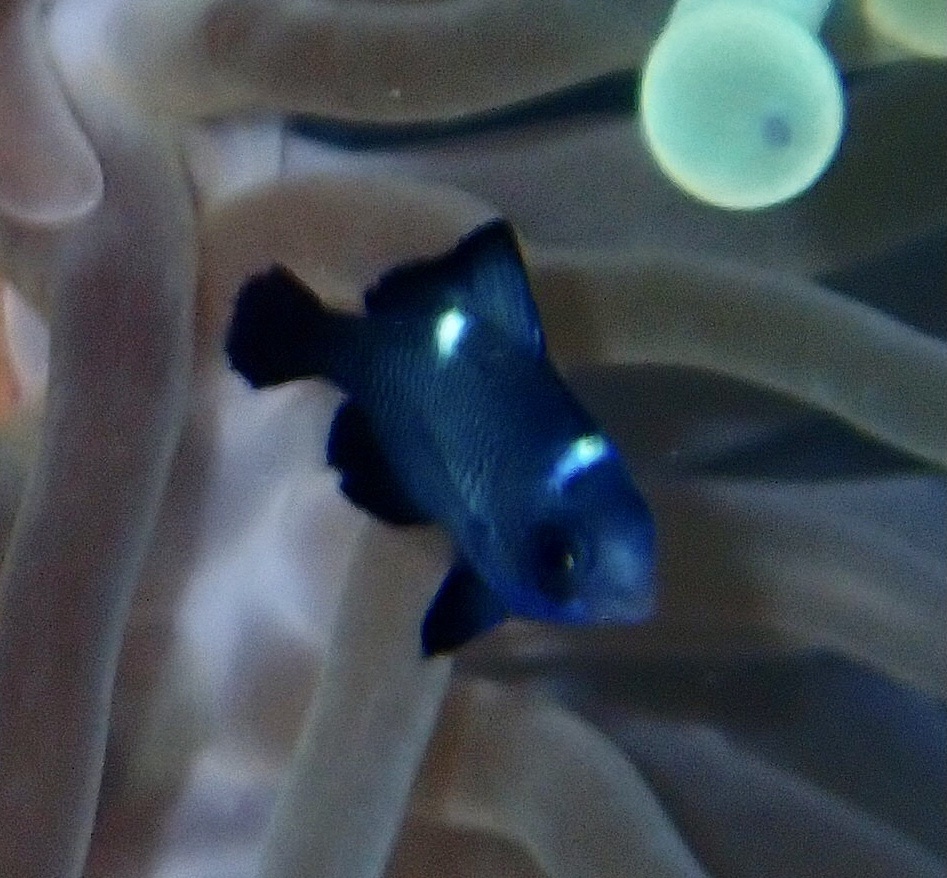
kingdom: Animalia
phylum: Chordata
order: Perciformes
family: Pomacentridae
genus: Dascyllus
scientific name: Dascyllus trimaculatus
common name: Threespot dascyllus
